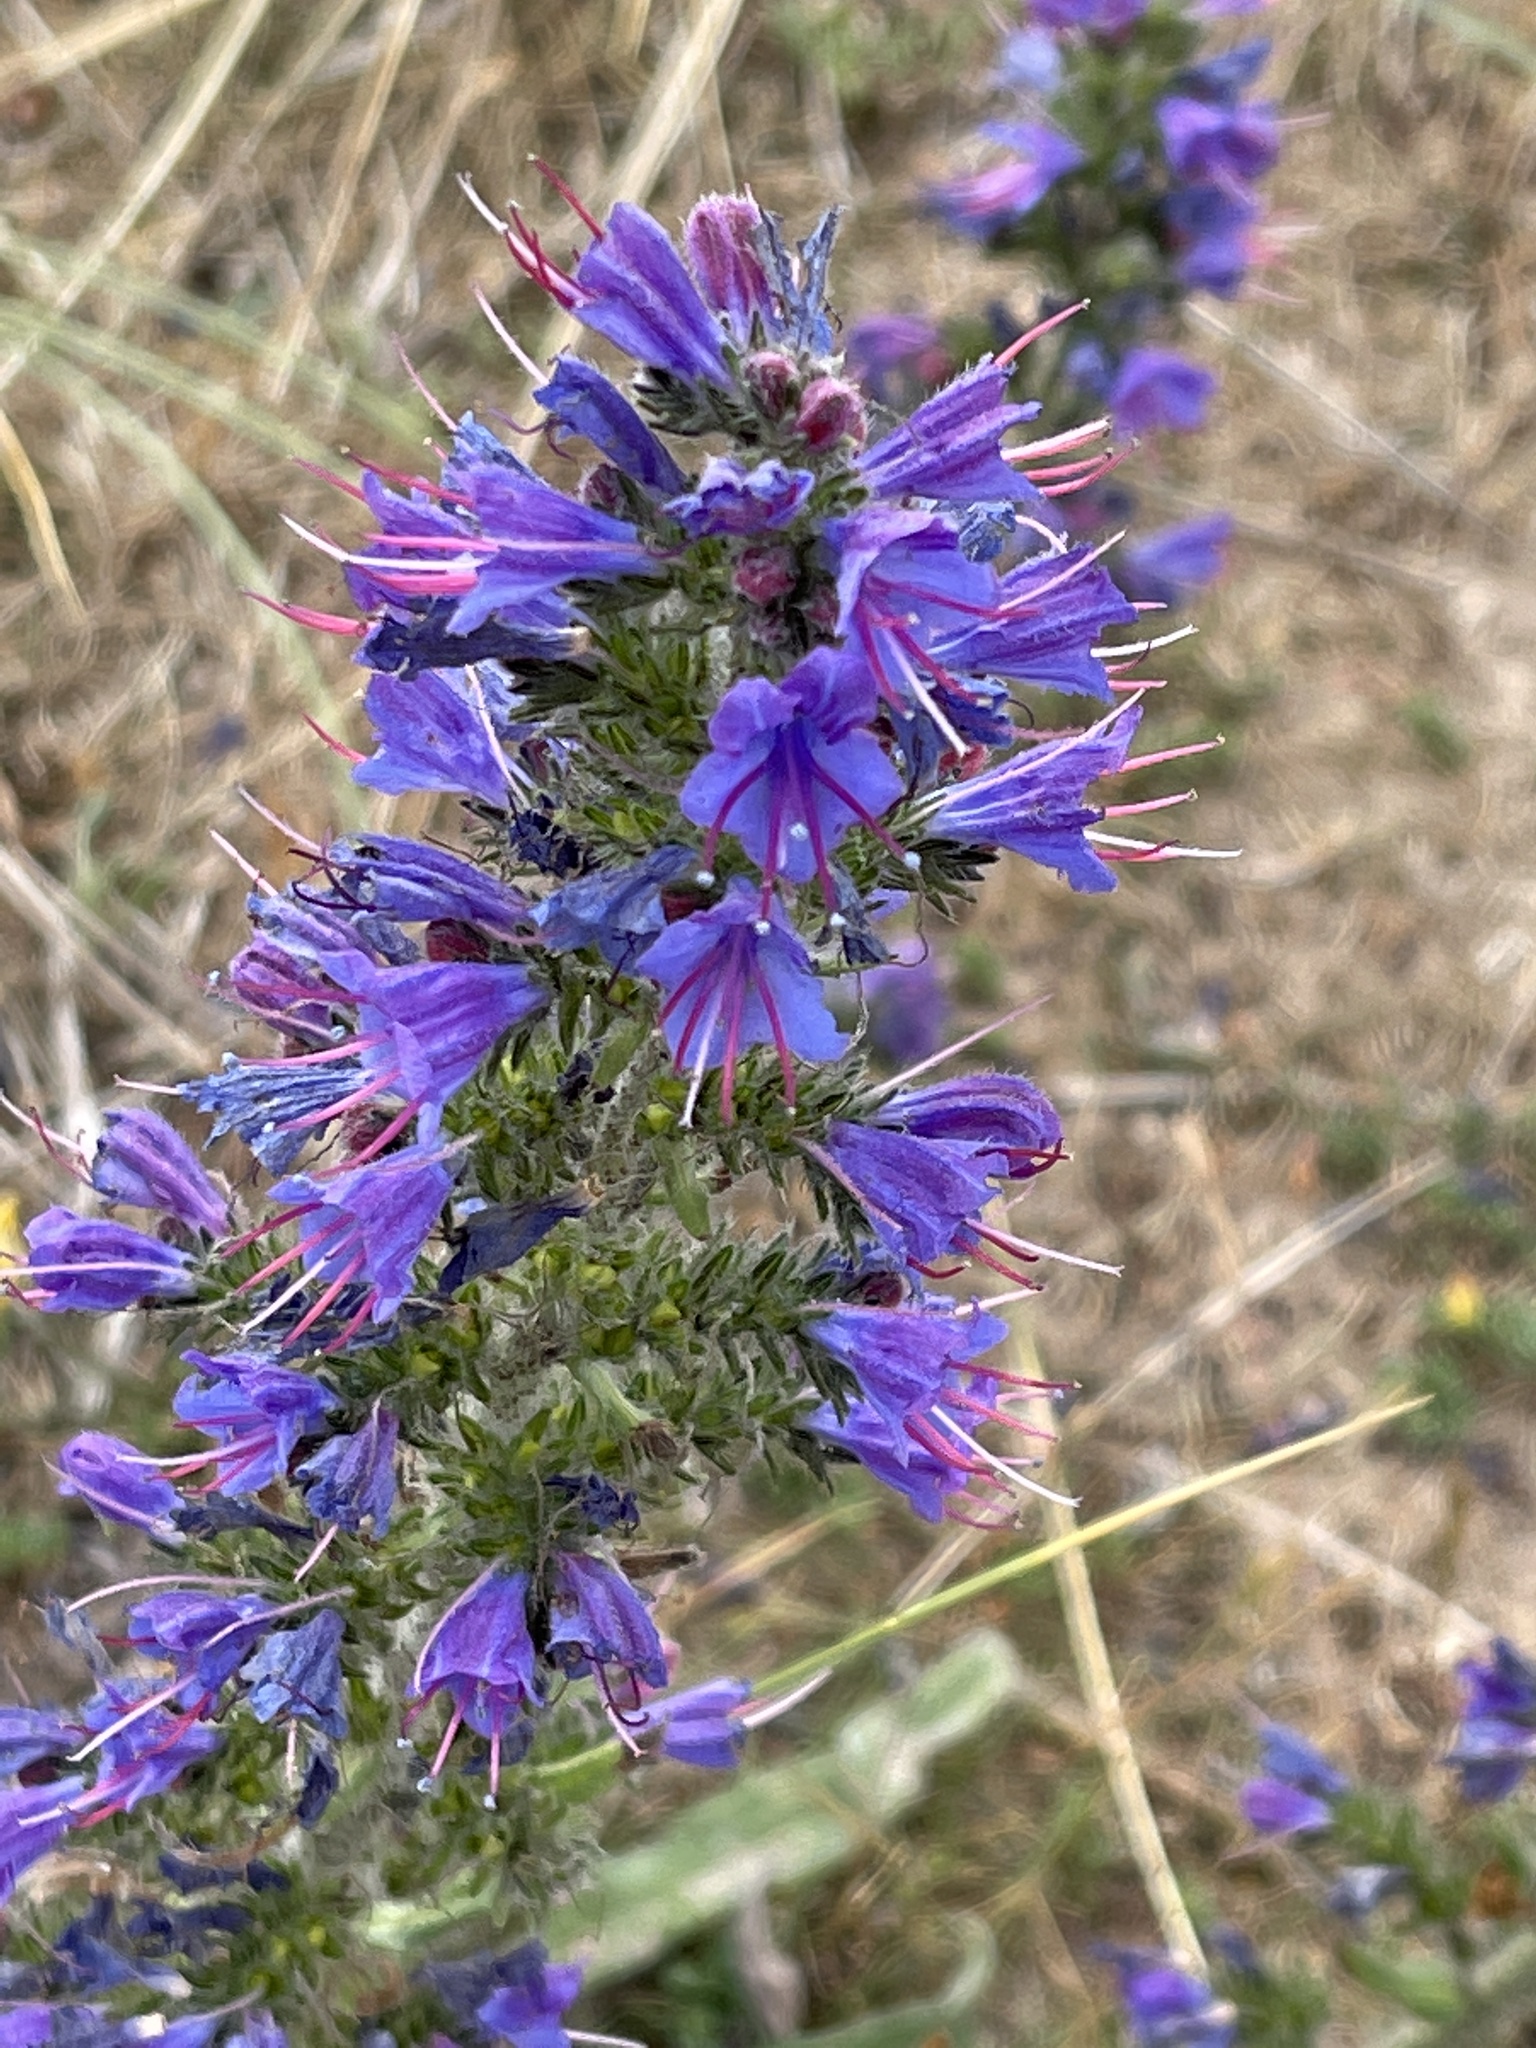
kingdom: Plantae
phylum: Tracheophyta
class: Magnoliopsida
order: Boraginales
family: Boraginaceae
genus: Echium
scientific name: Echium vulgare
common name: Common viper's bugloss
